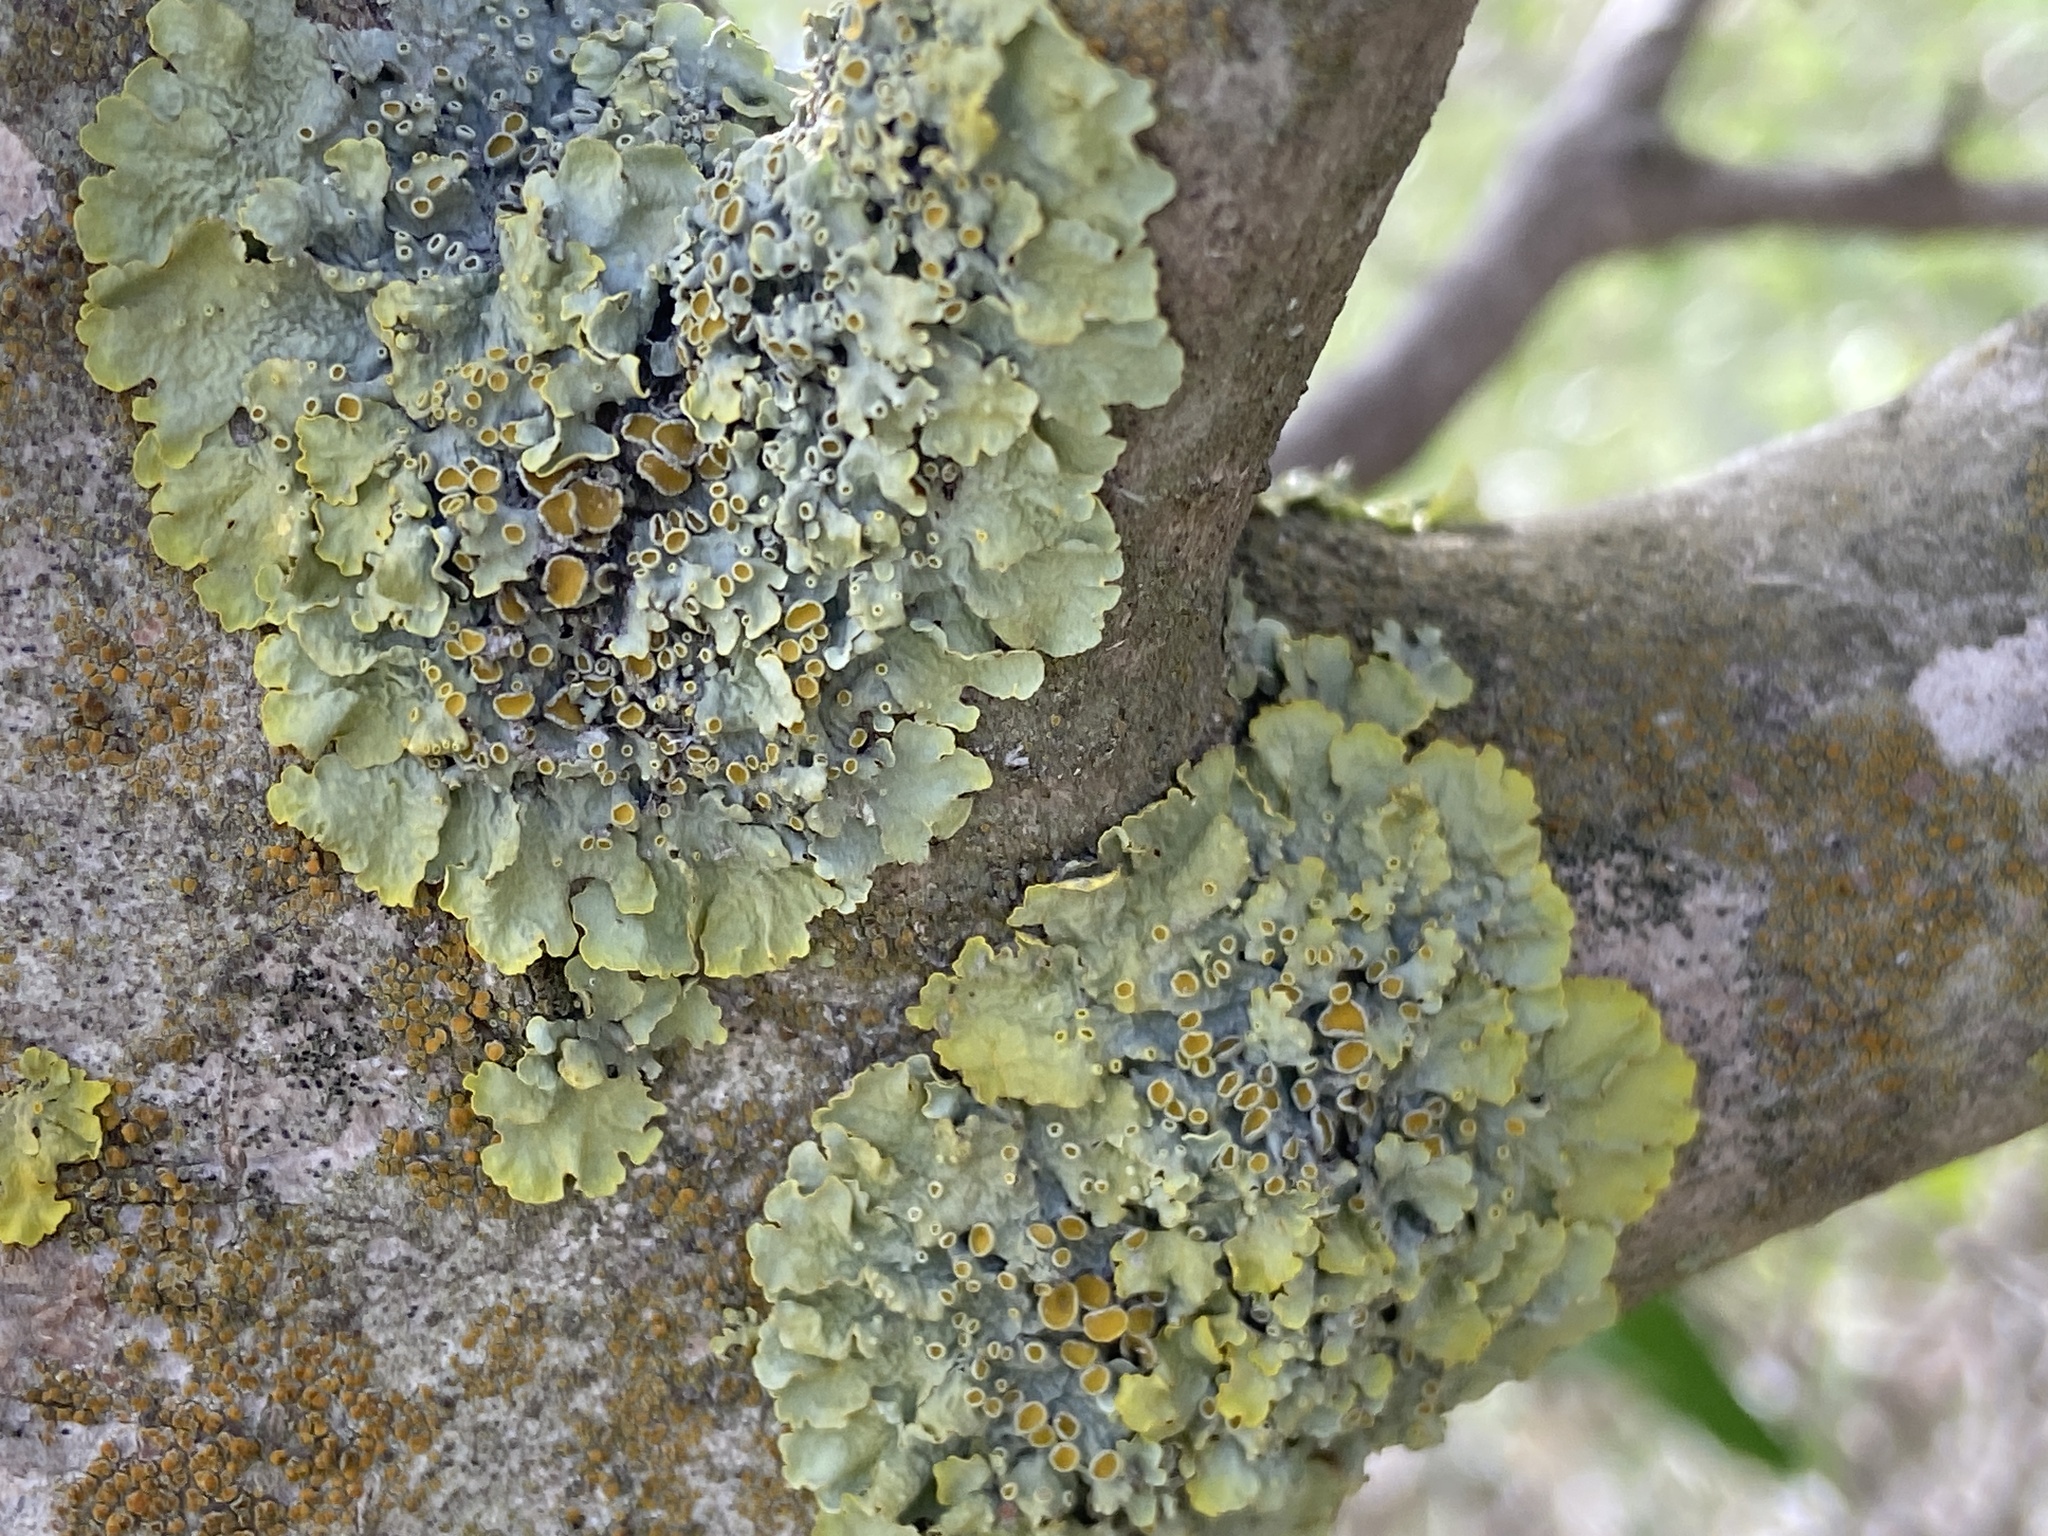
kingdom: Fungi
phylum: Ascomycota
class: Lecanoromycetes
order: Teloschistales
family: Teloschistaceae
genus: Xanthoria
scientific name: Xanthoria parietina
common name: Common orange lichen
